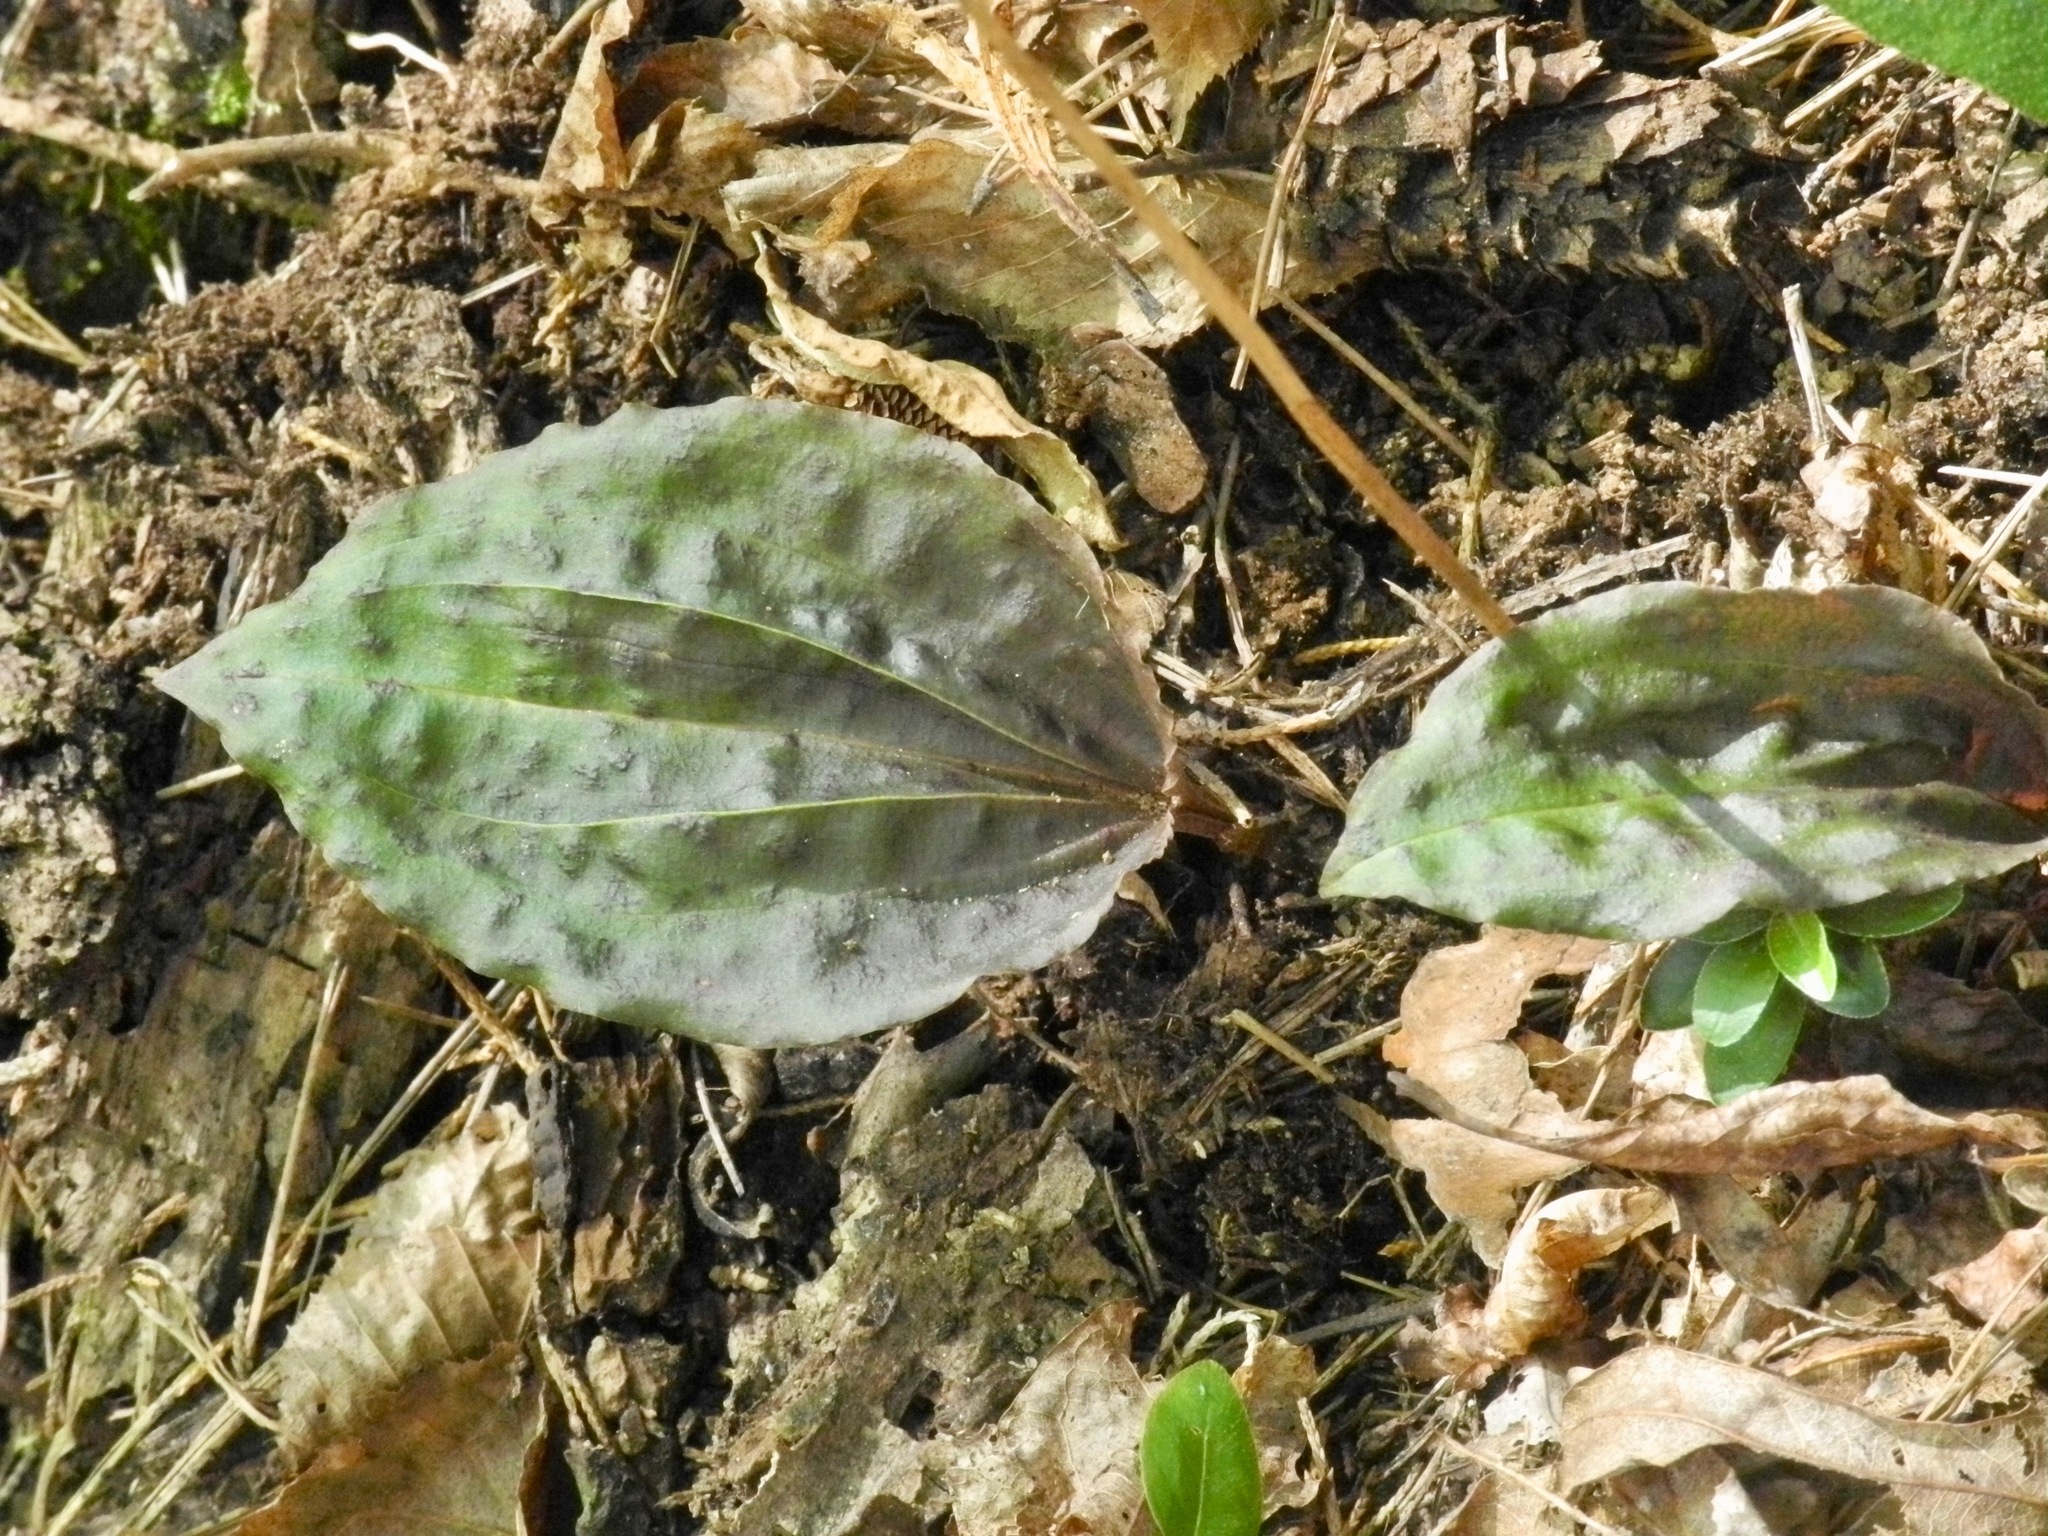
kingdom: Plantae
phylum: Tracheophyta
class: Liliopsida
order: Asparagales
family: Orchidaceae
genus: Tipularia
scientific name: Tipularia discolor
